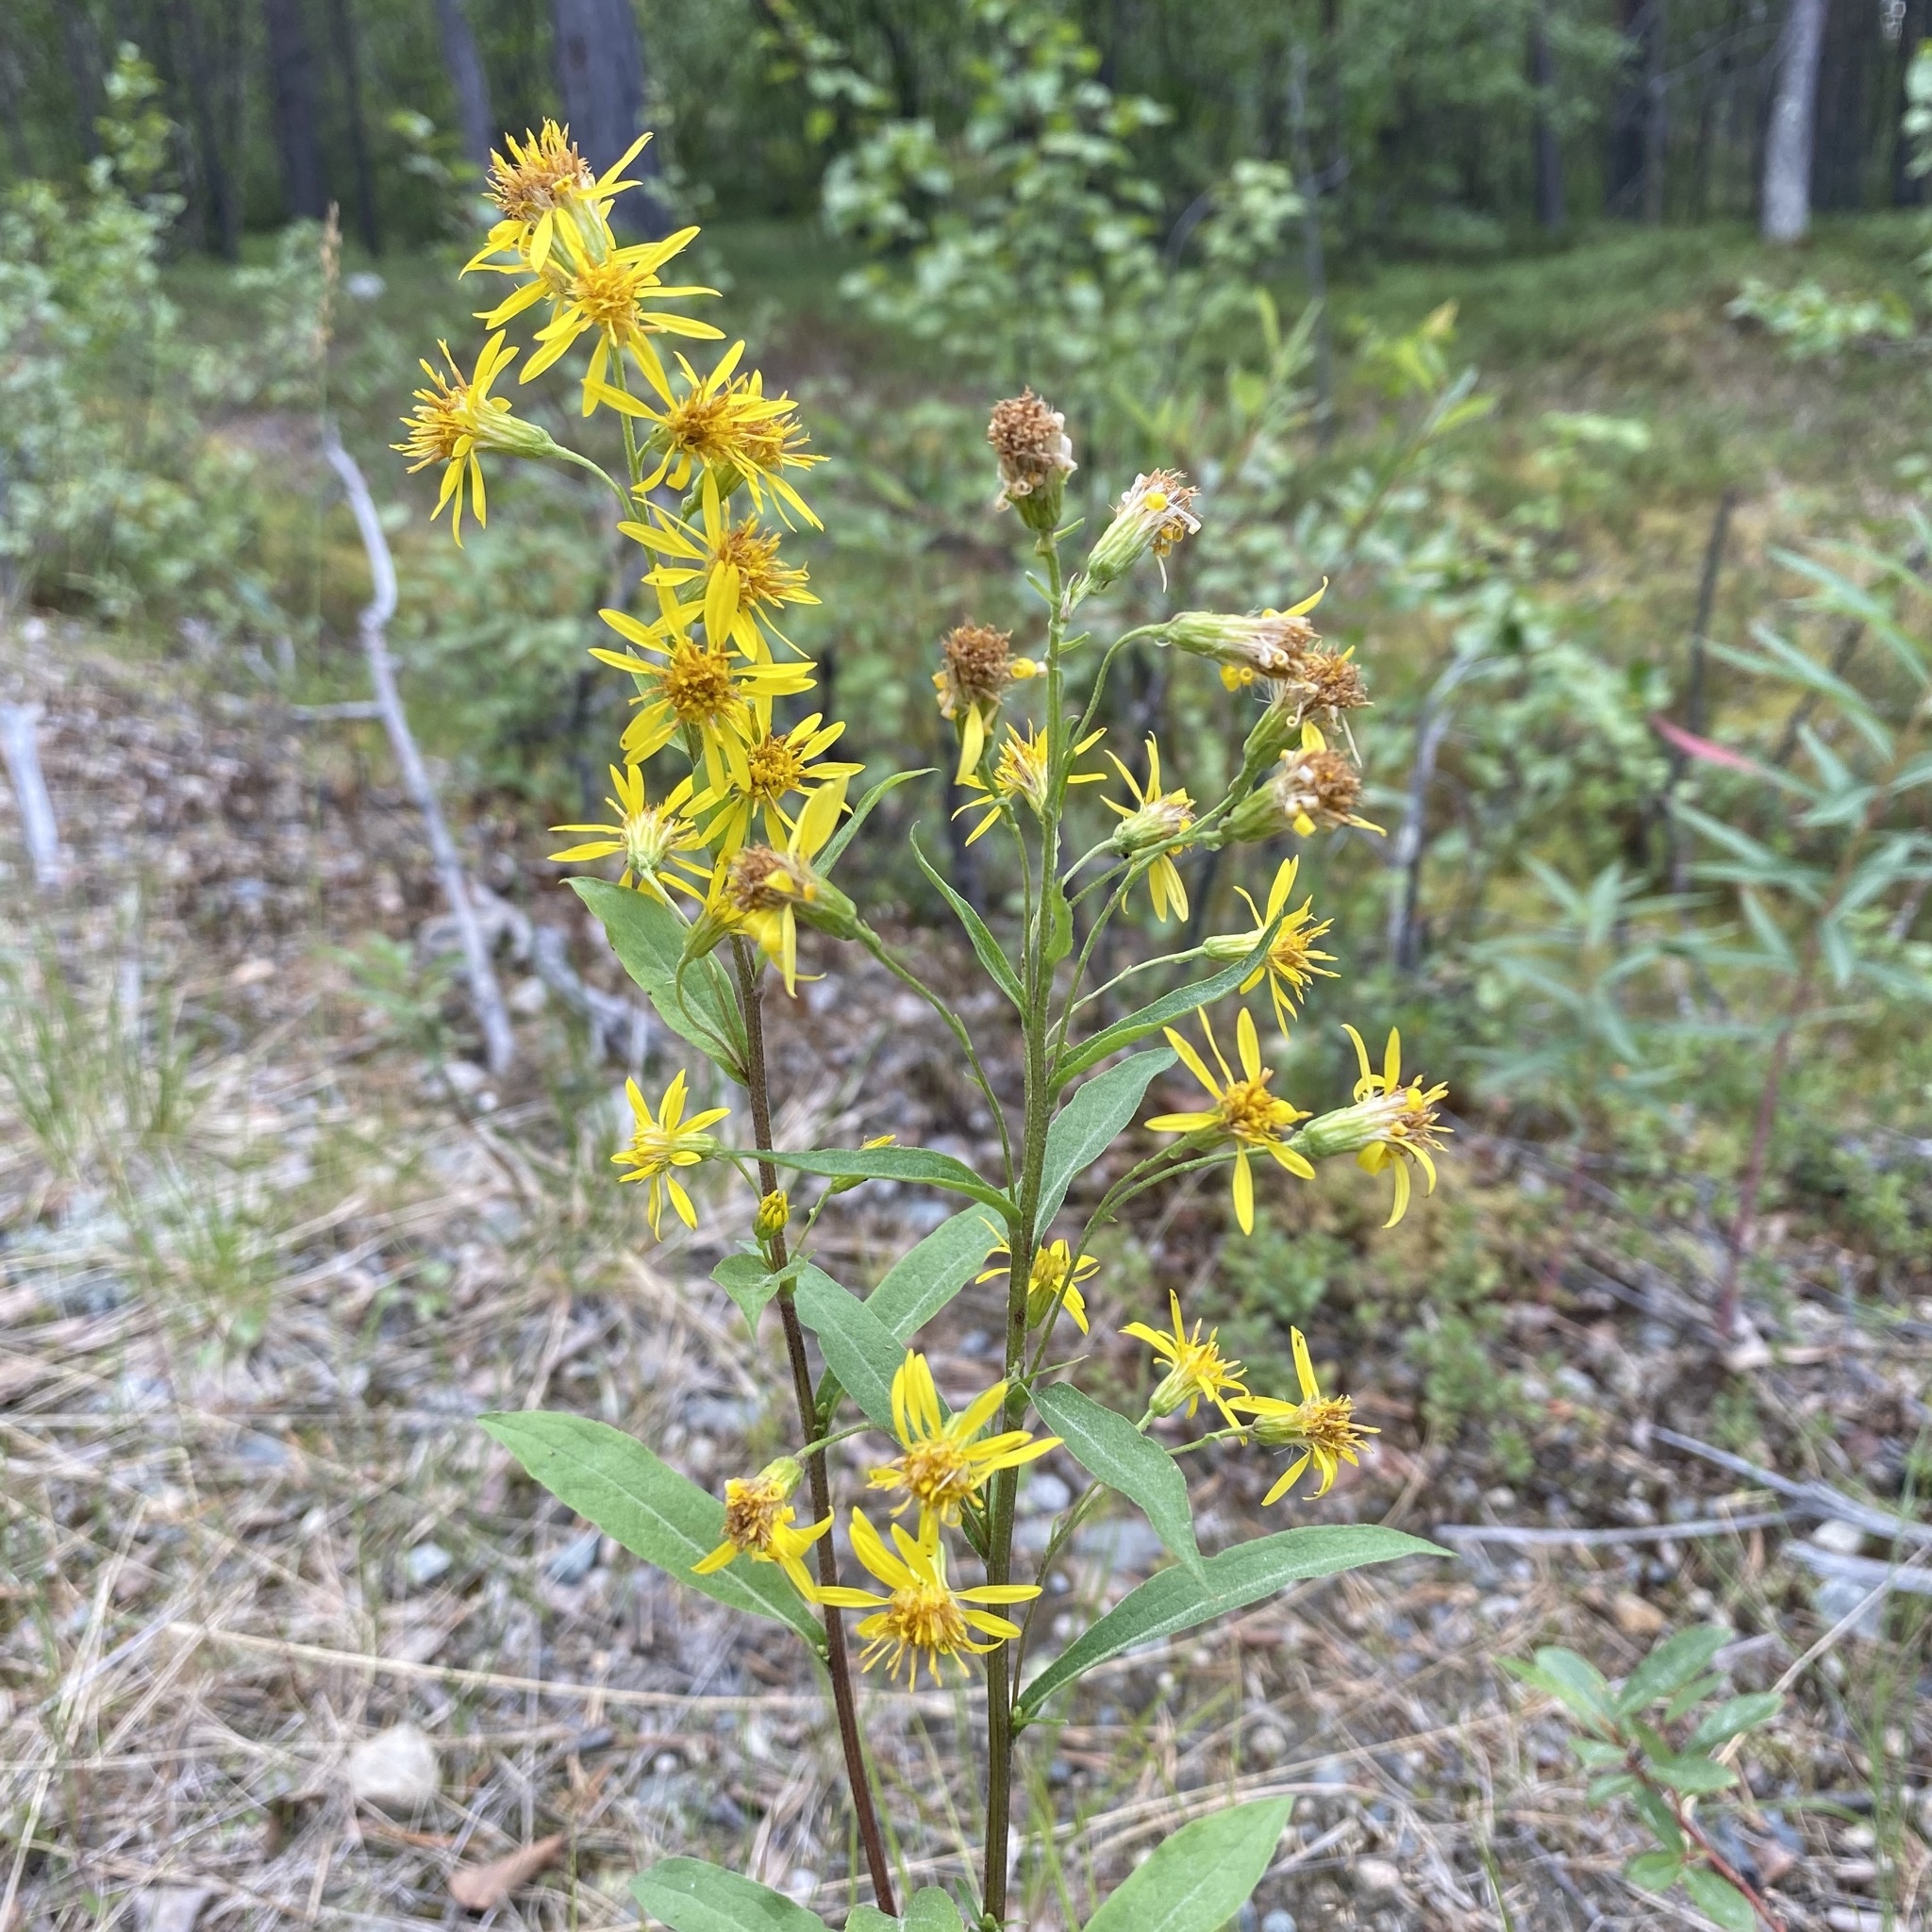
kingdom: Plantae
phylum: Tracheophyta
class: Magnoliopsida
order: Asterales
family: Asteraceae
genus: Solidago
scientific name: Solidago virgaurea
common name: Goldenrod
